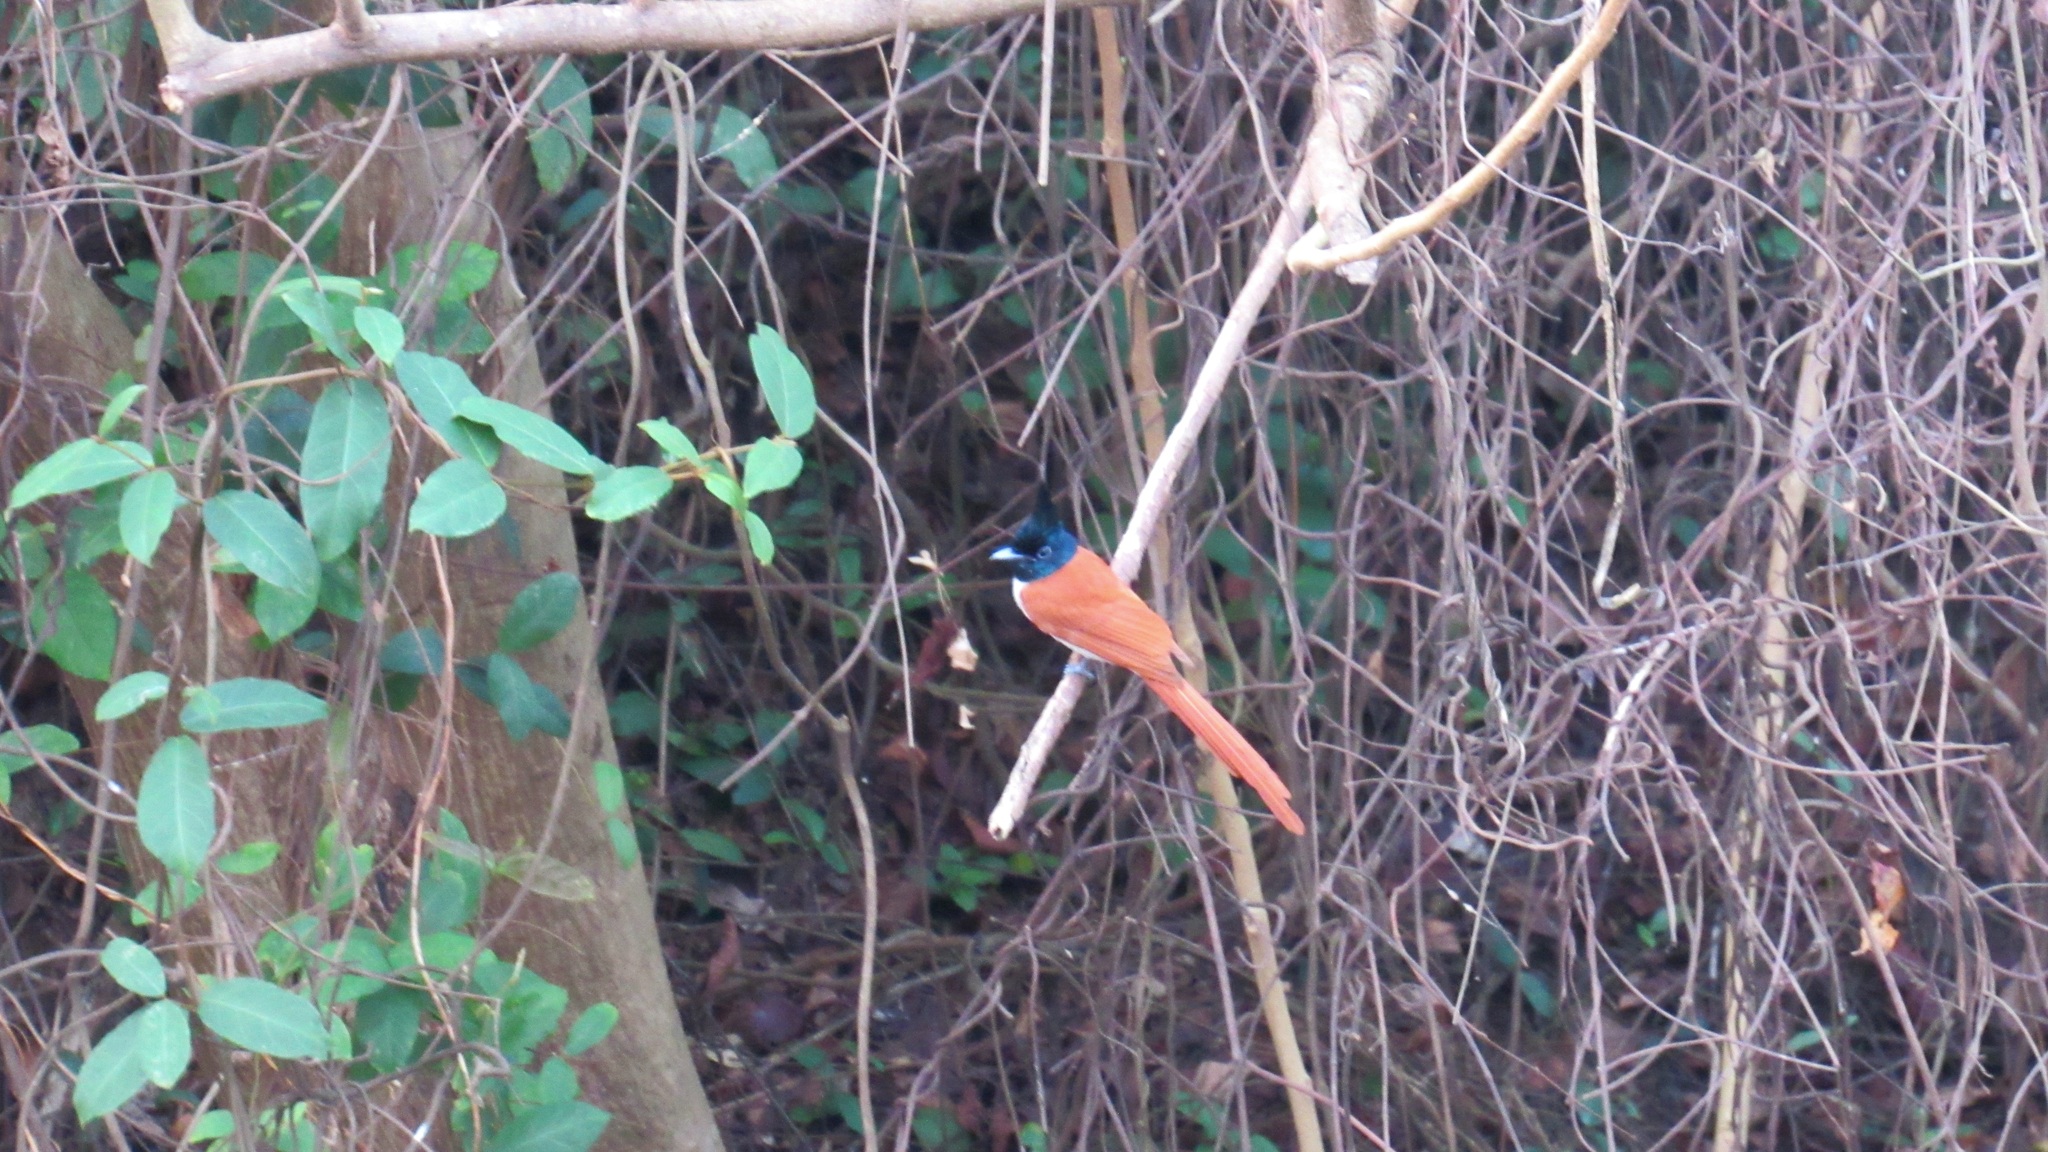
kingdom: Animalia
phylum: Chordata
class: Aves
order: Passeriformes
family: Monarchidae
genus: Terpsiphone
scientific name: Terpsiphone paradisi
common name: Indian paradise flycatcher
